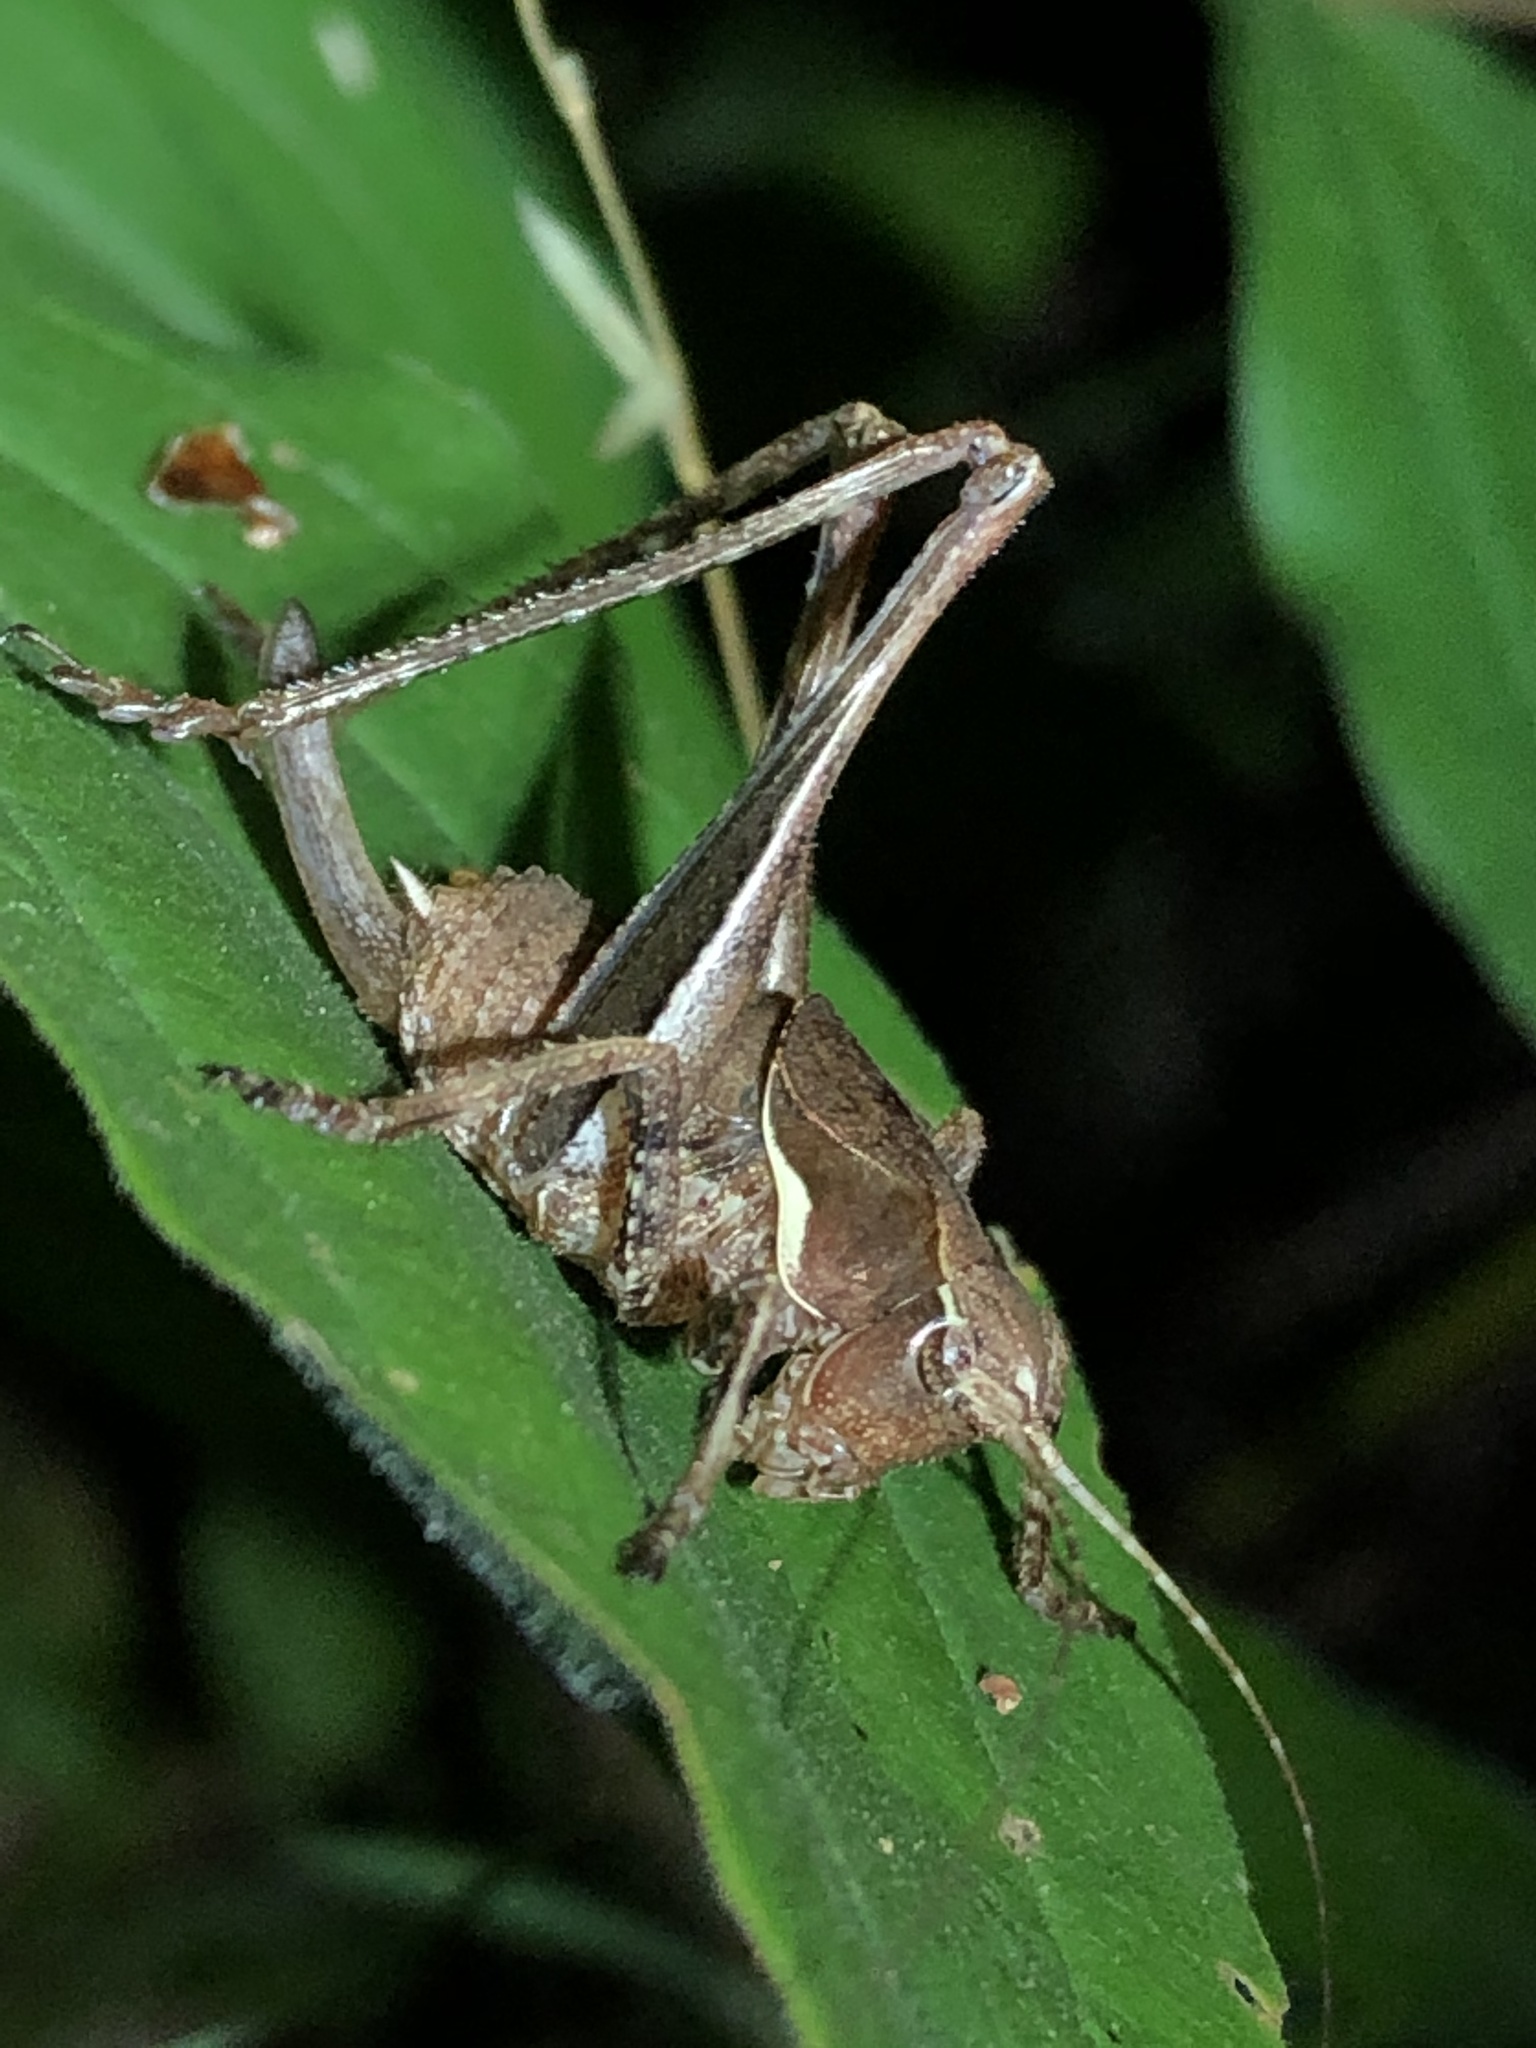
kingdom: Animalia
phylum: Arthropoda
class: Insecta
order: Orthoptera
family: Tettigoniidae
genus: Neduba
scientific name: Neduba steindachneri
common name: Steindachner's shieldback
